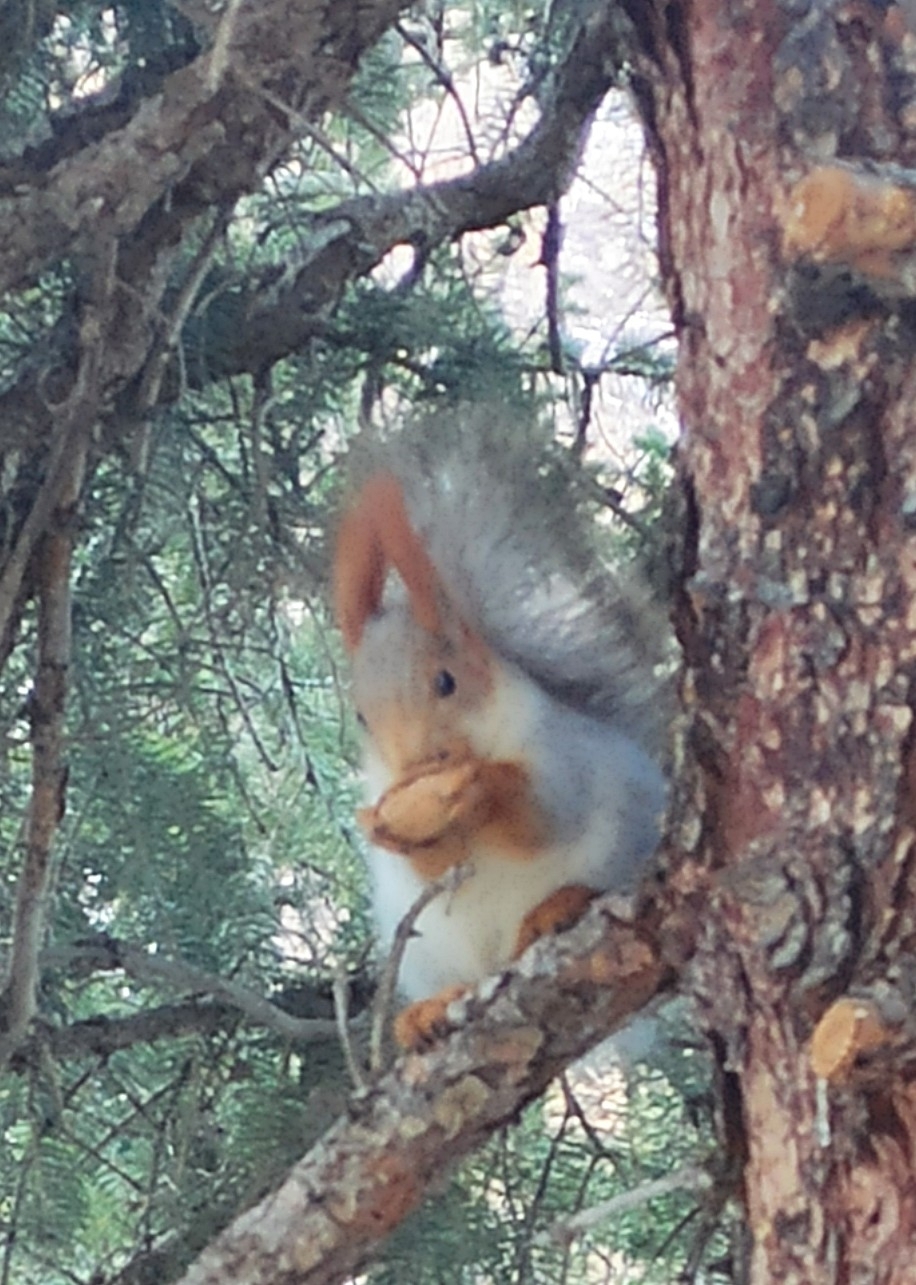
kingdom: Animalia
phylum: Chordata
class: Mammalia
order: Rodentia
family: Sciuridae
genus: Sciurus
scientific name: Sciurus vulgaris
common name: Eurasian red squirrel
